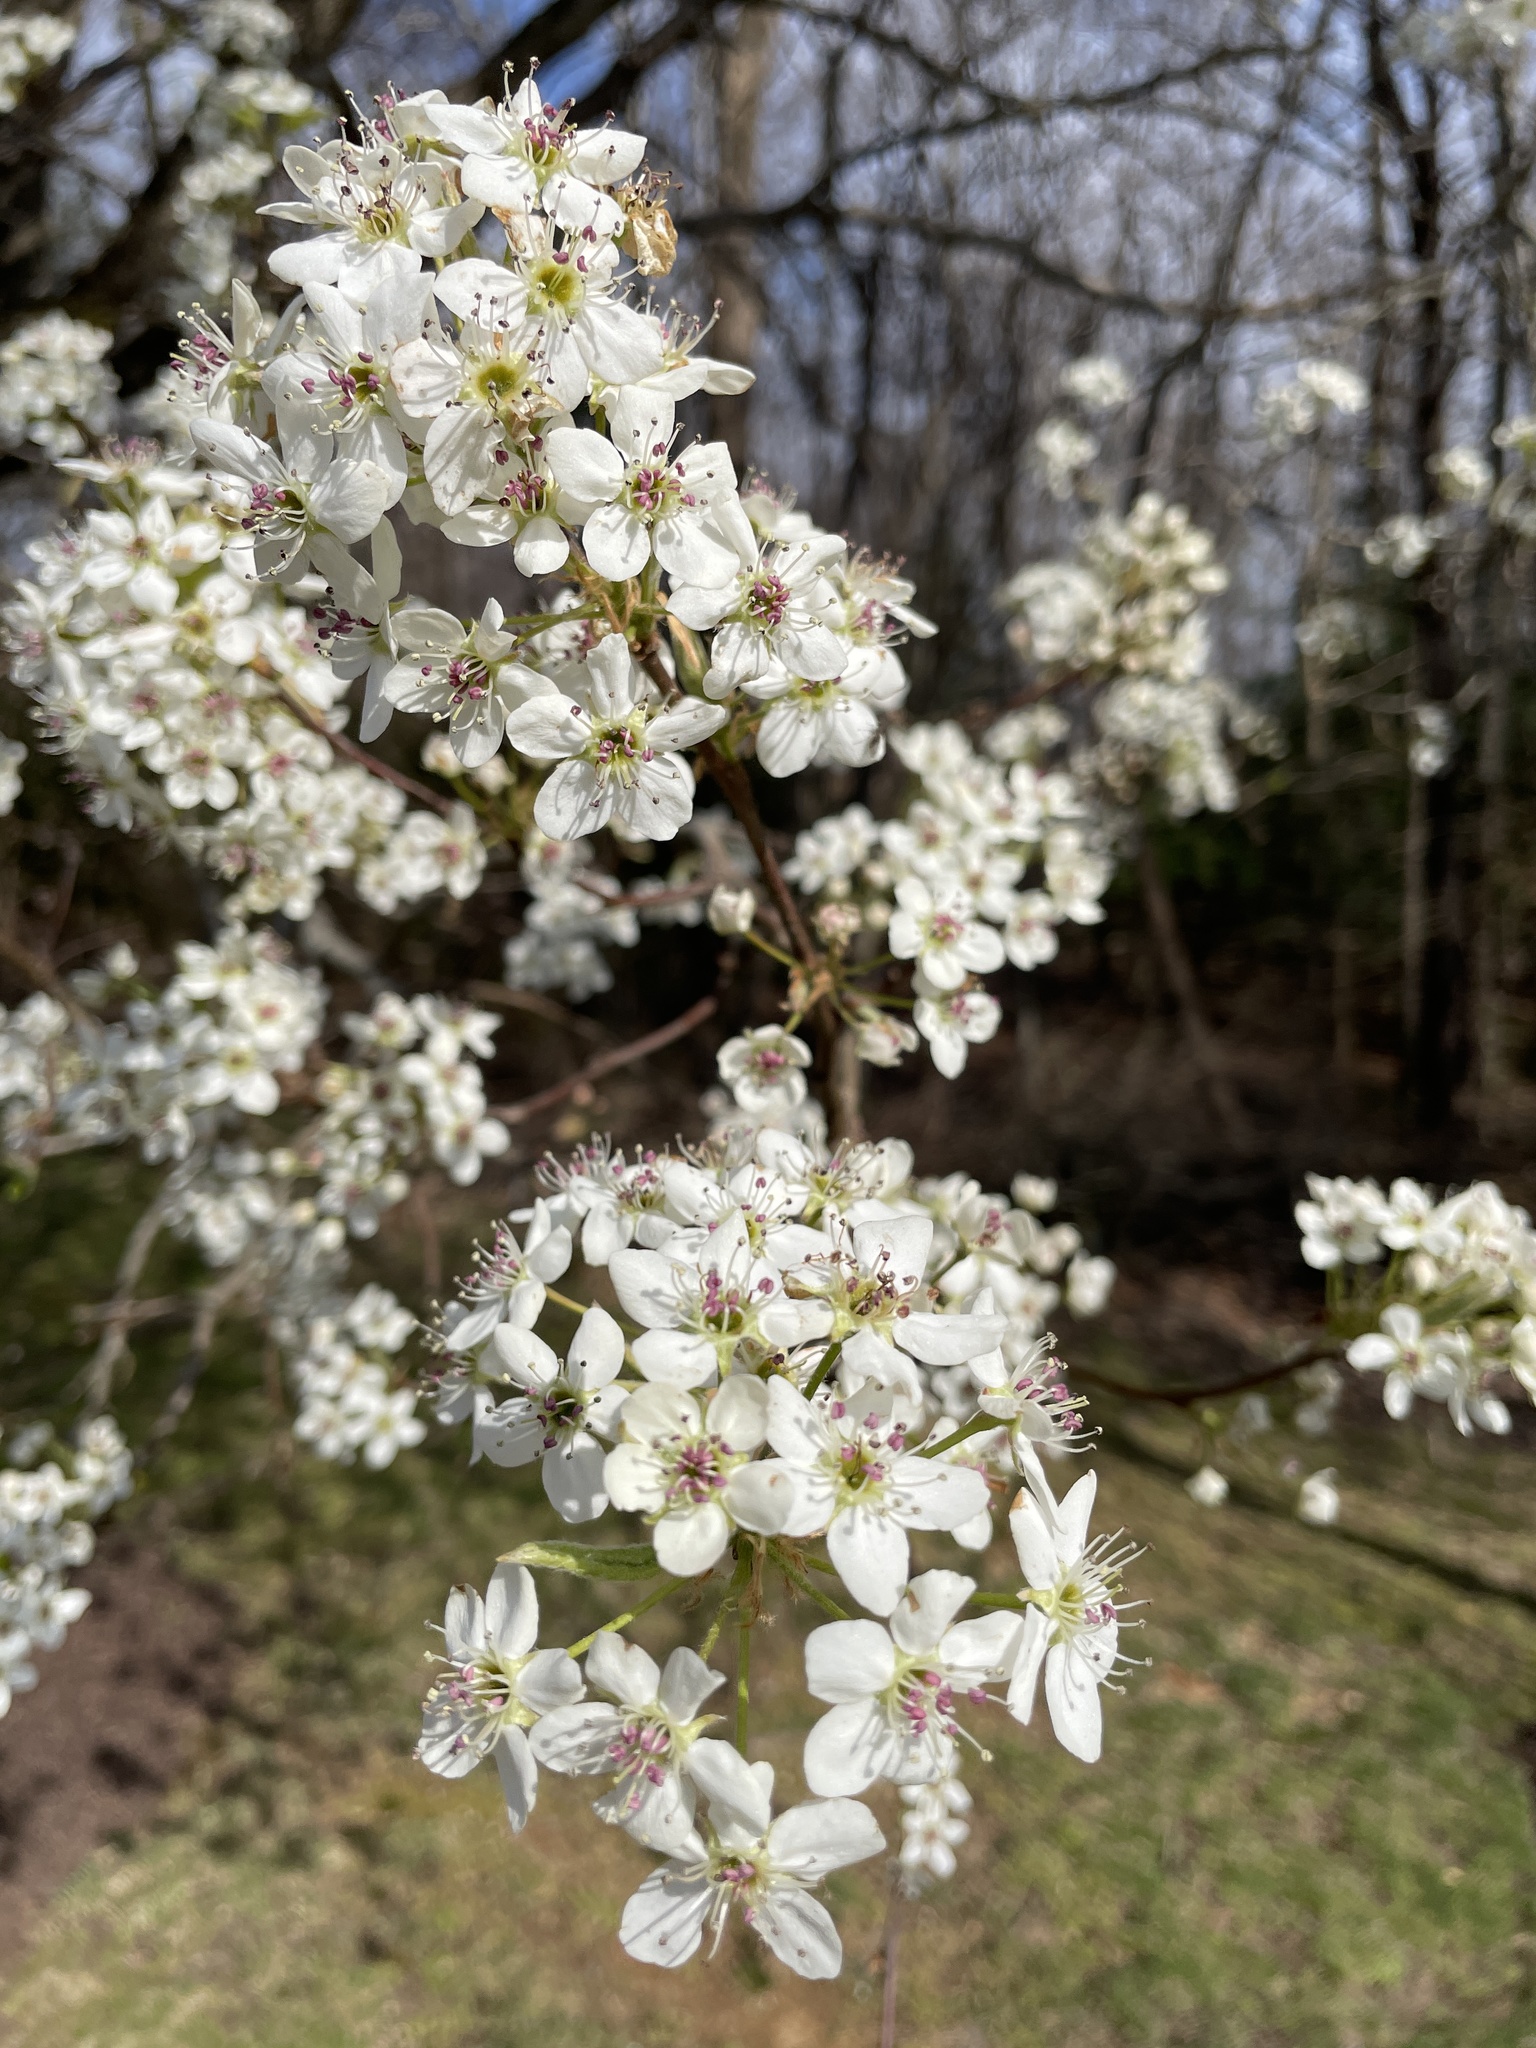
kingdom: Plantae
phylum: Tracheophyta
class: Magnoliopsida
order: Rosales
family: Rosaceae
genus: Pyrus
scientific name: Pyrus calleryana
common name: Callery pear
